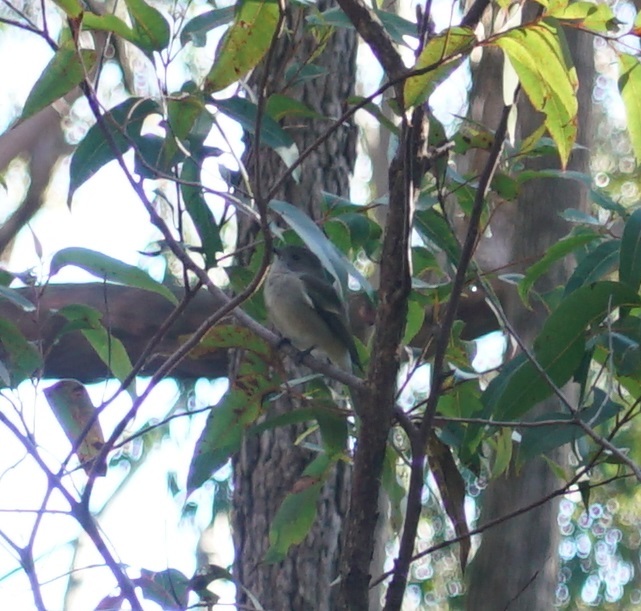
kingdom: Animalia
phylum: Chordata
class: Aves
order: Passeriformes
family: Pachycephalidae
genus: Pachycephala
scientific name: Pachycephala pectoralis
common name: Australian golden whistler
